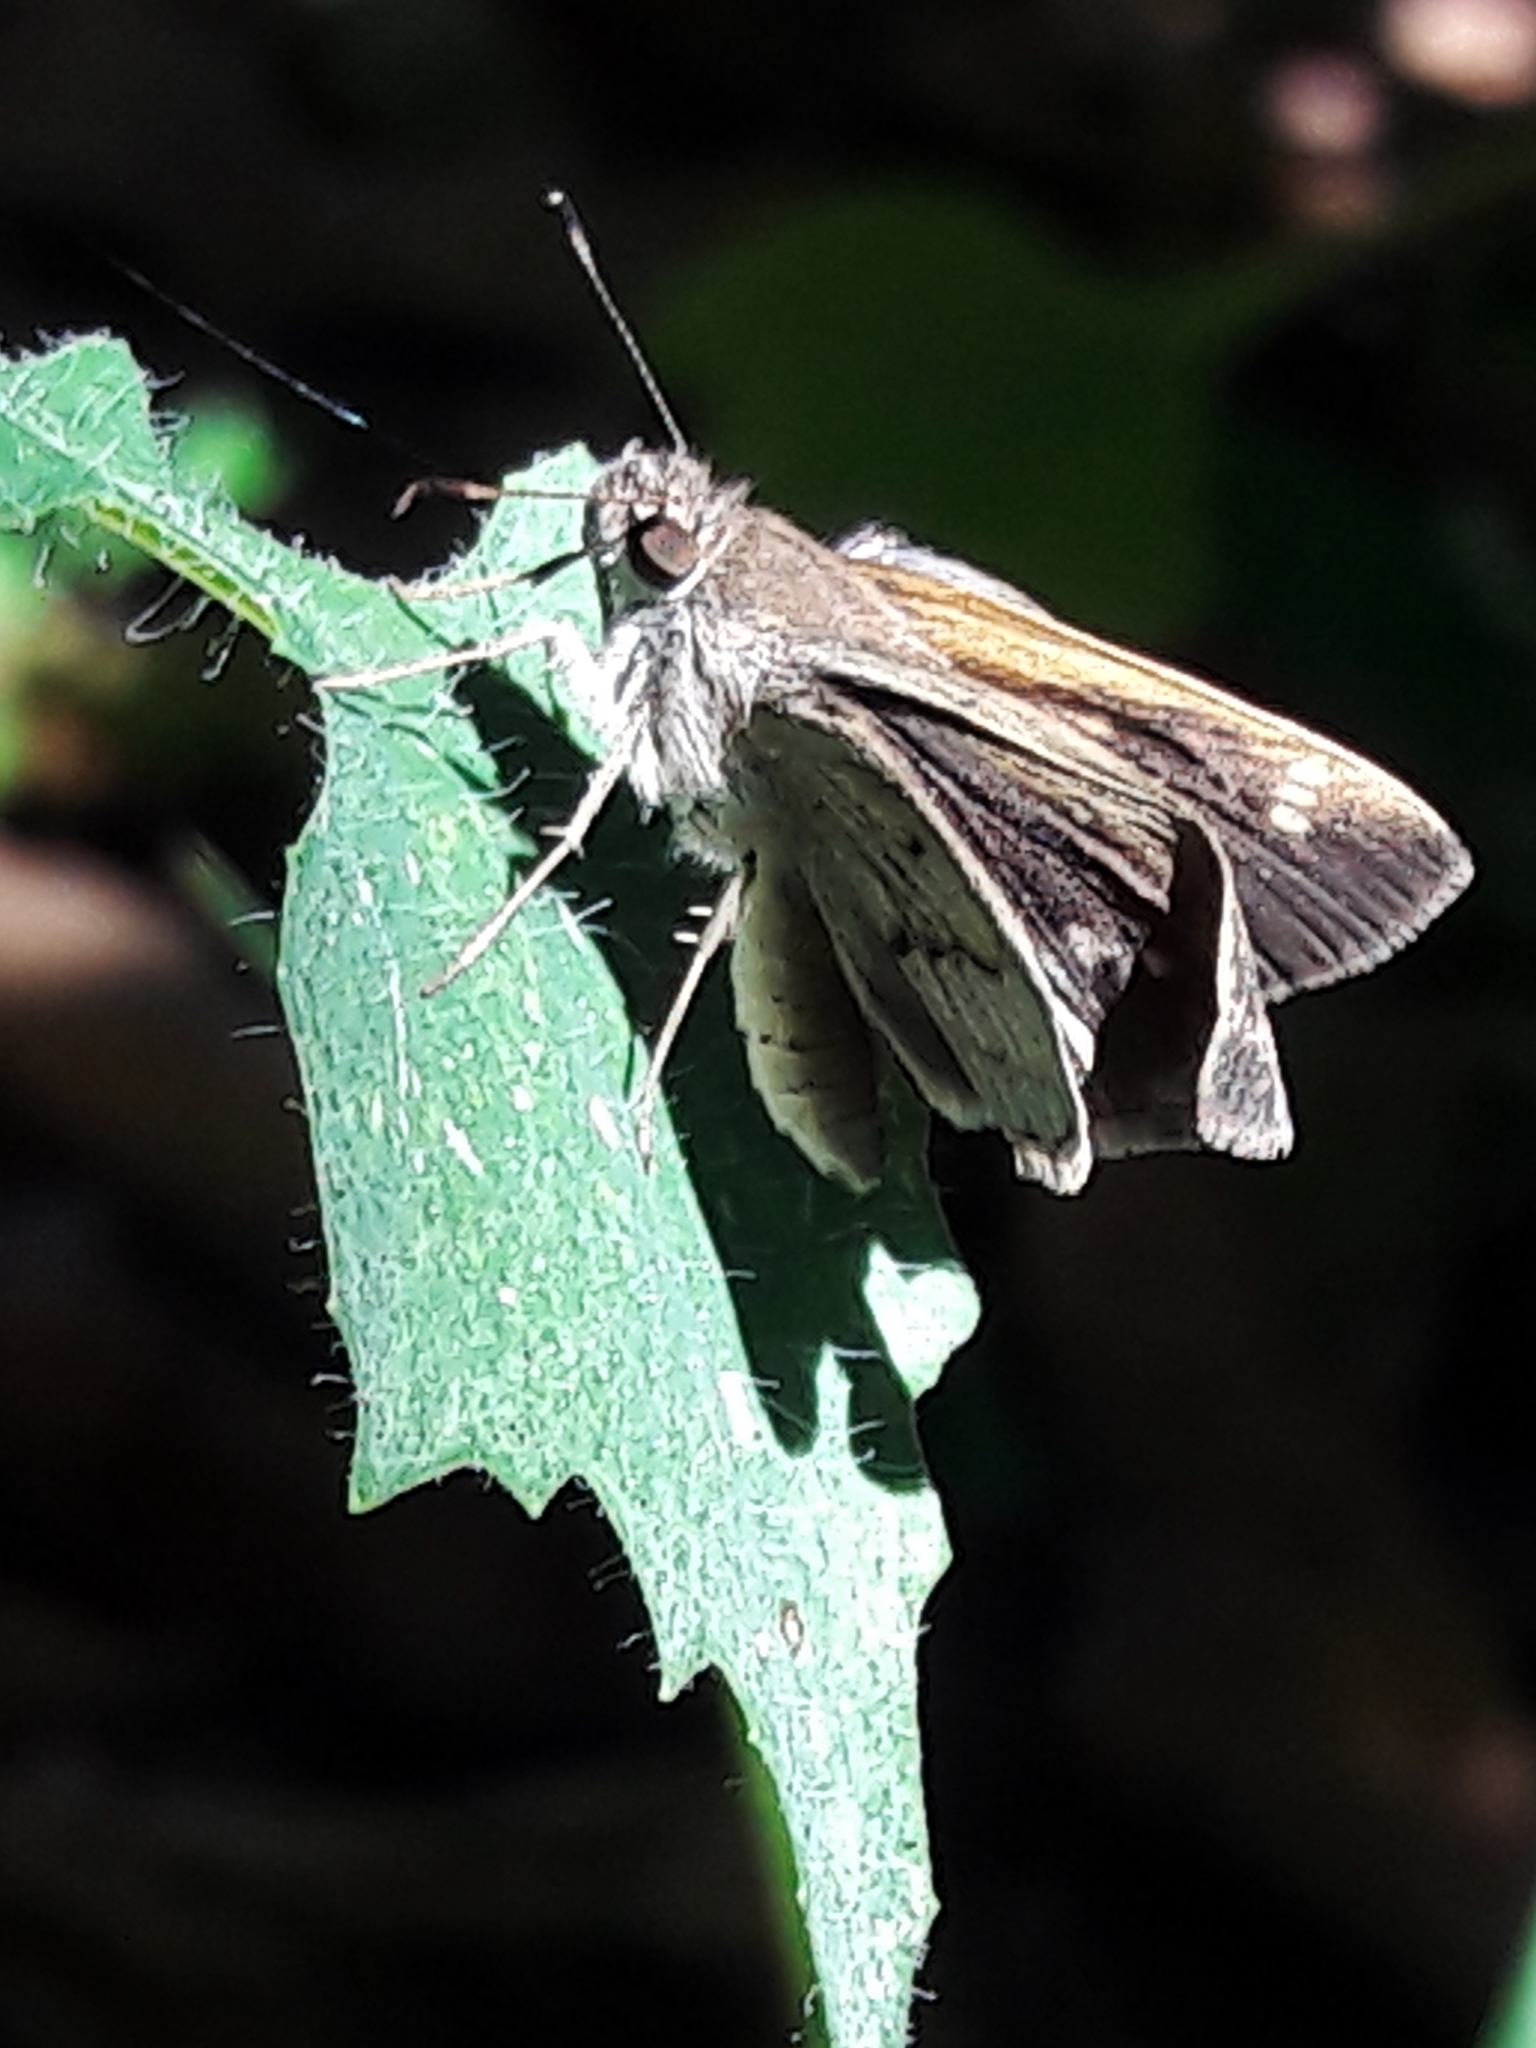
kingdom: Animalia
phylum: Arthropoda
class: Insecta
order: Lepidoptera
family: Hesperiidae
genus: Cymaenes
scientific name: Cymaenes gisca
